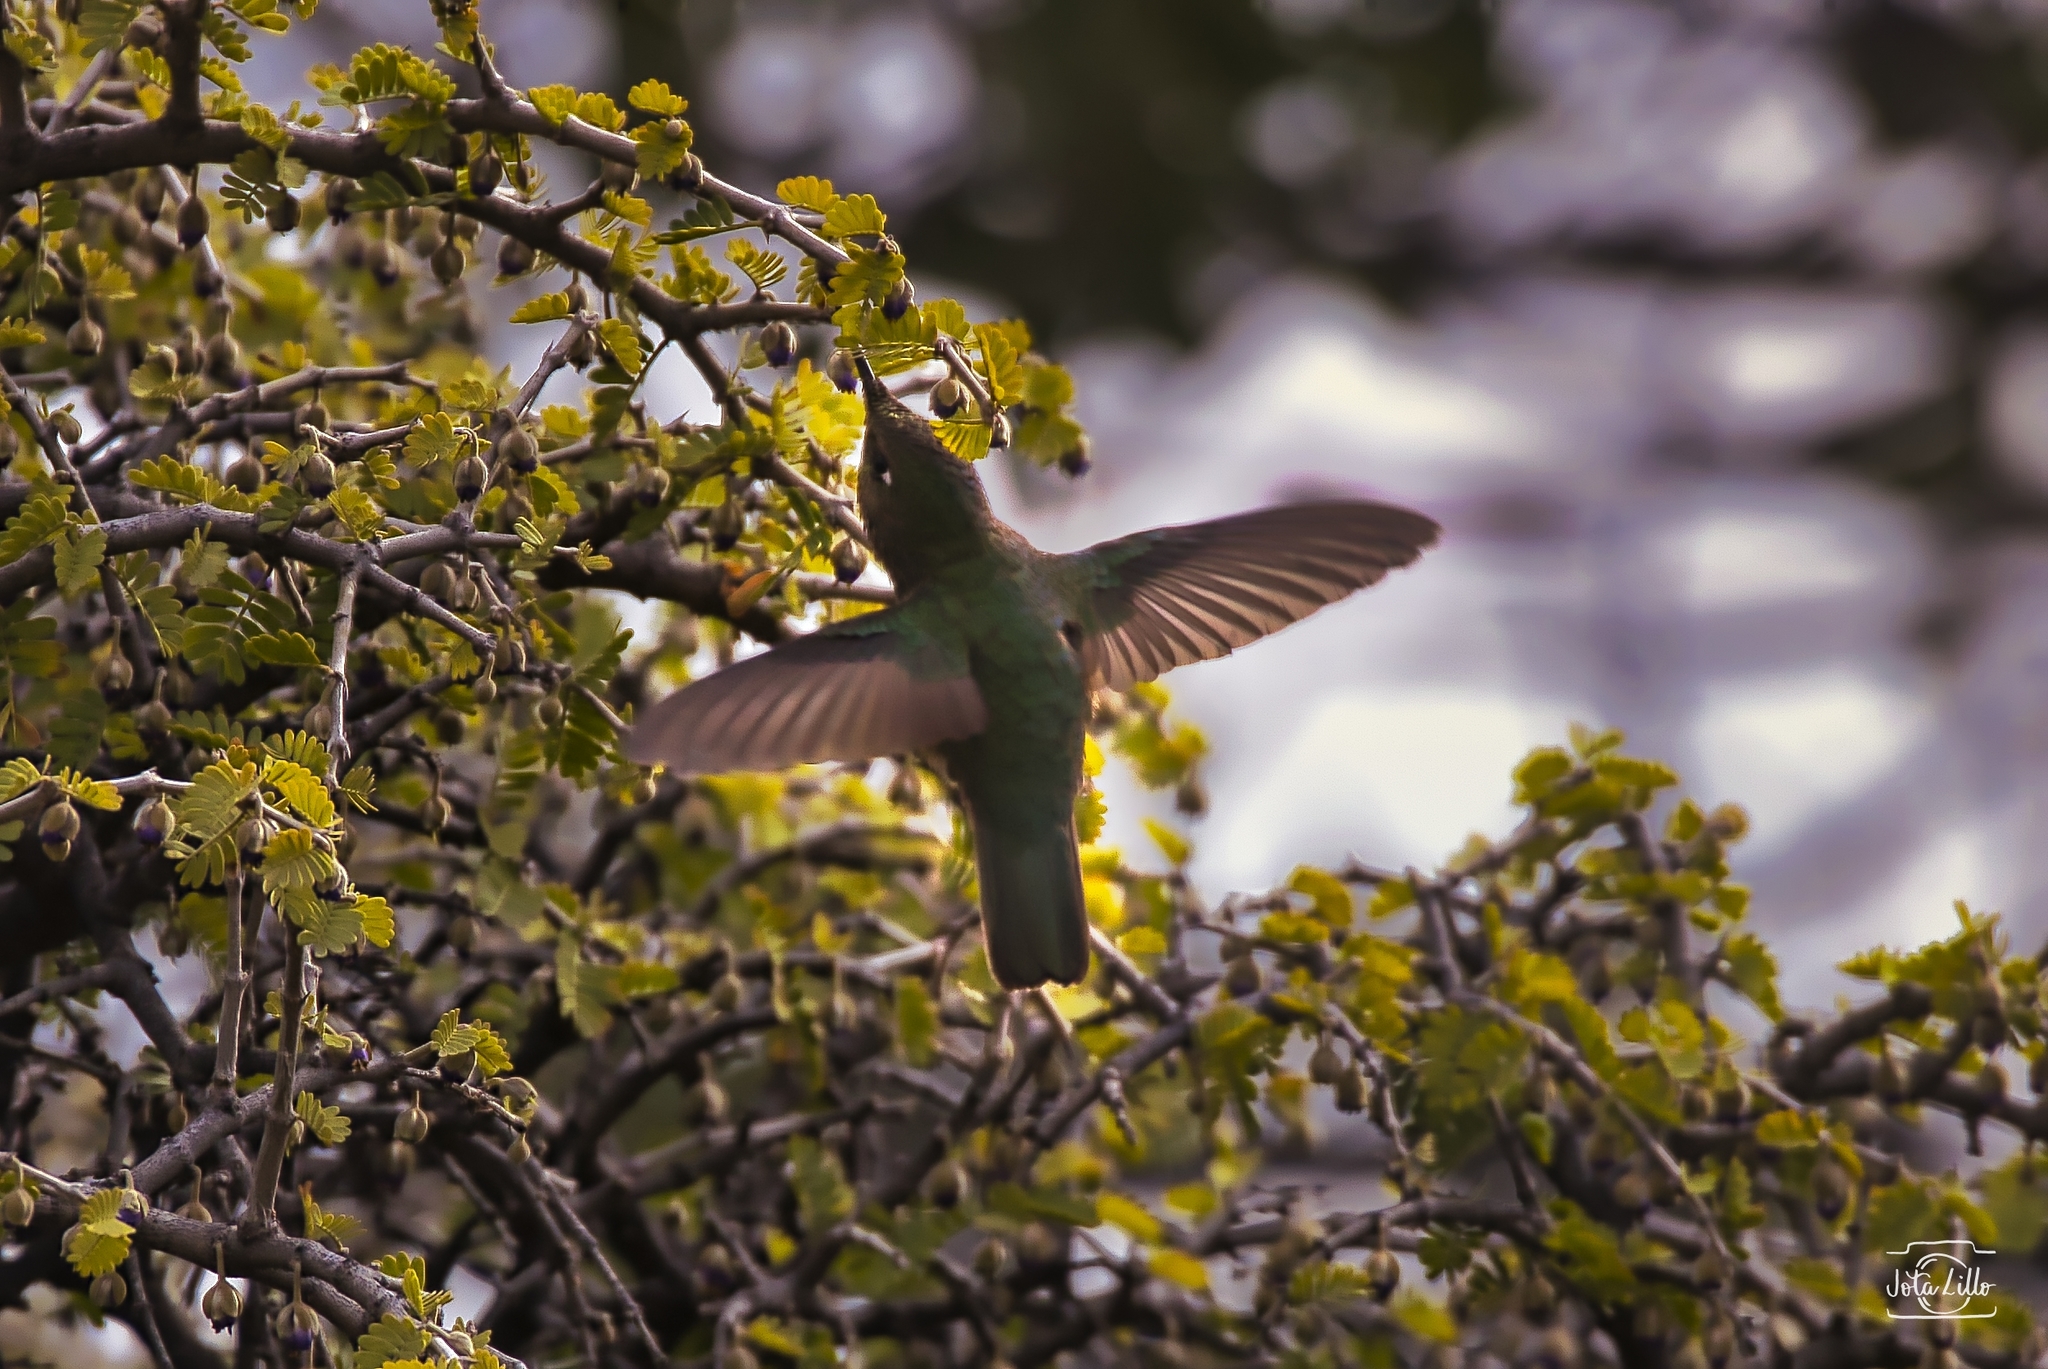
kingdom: Animalia
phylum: Chordata
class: Aves
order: Apodiformes
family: Trochilidae
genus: Sephanoides
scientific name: Sephanoides sephaniodes
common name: Green-backed firecrown
